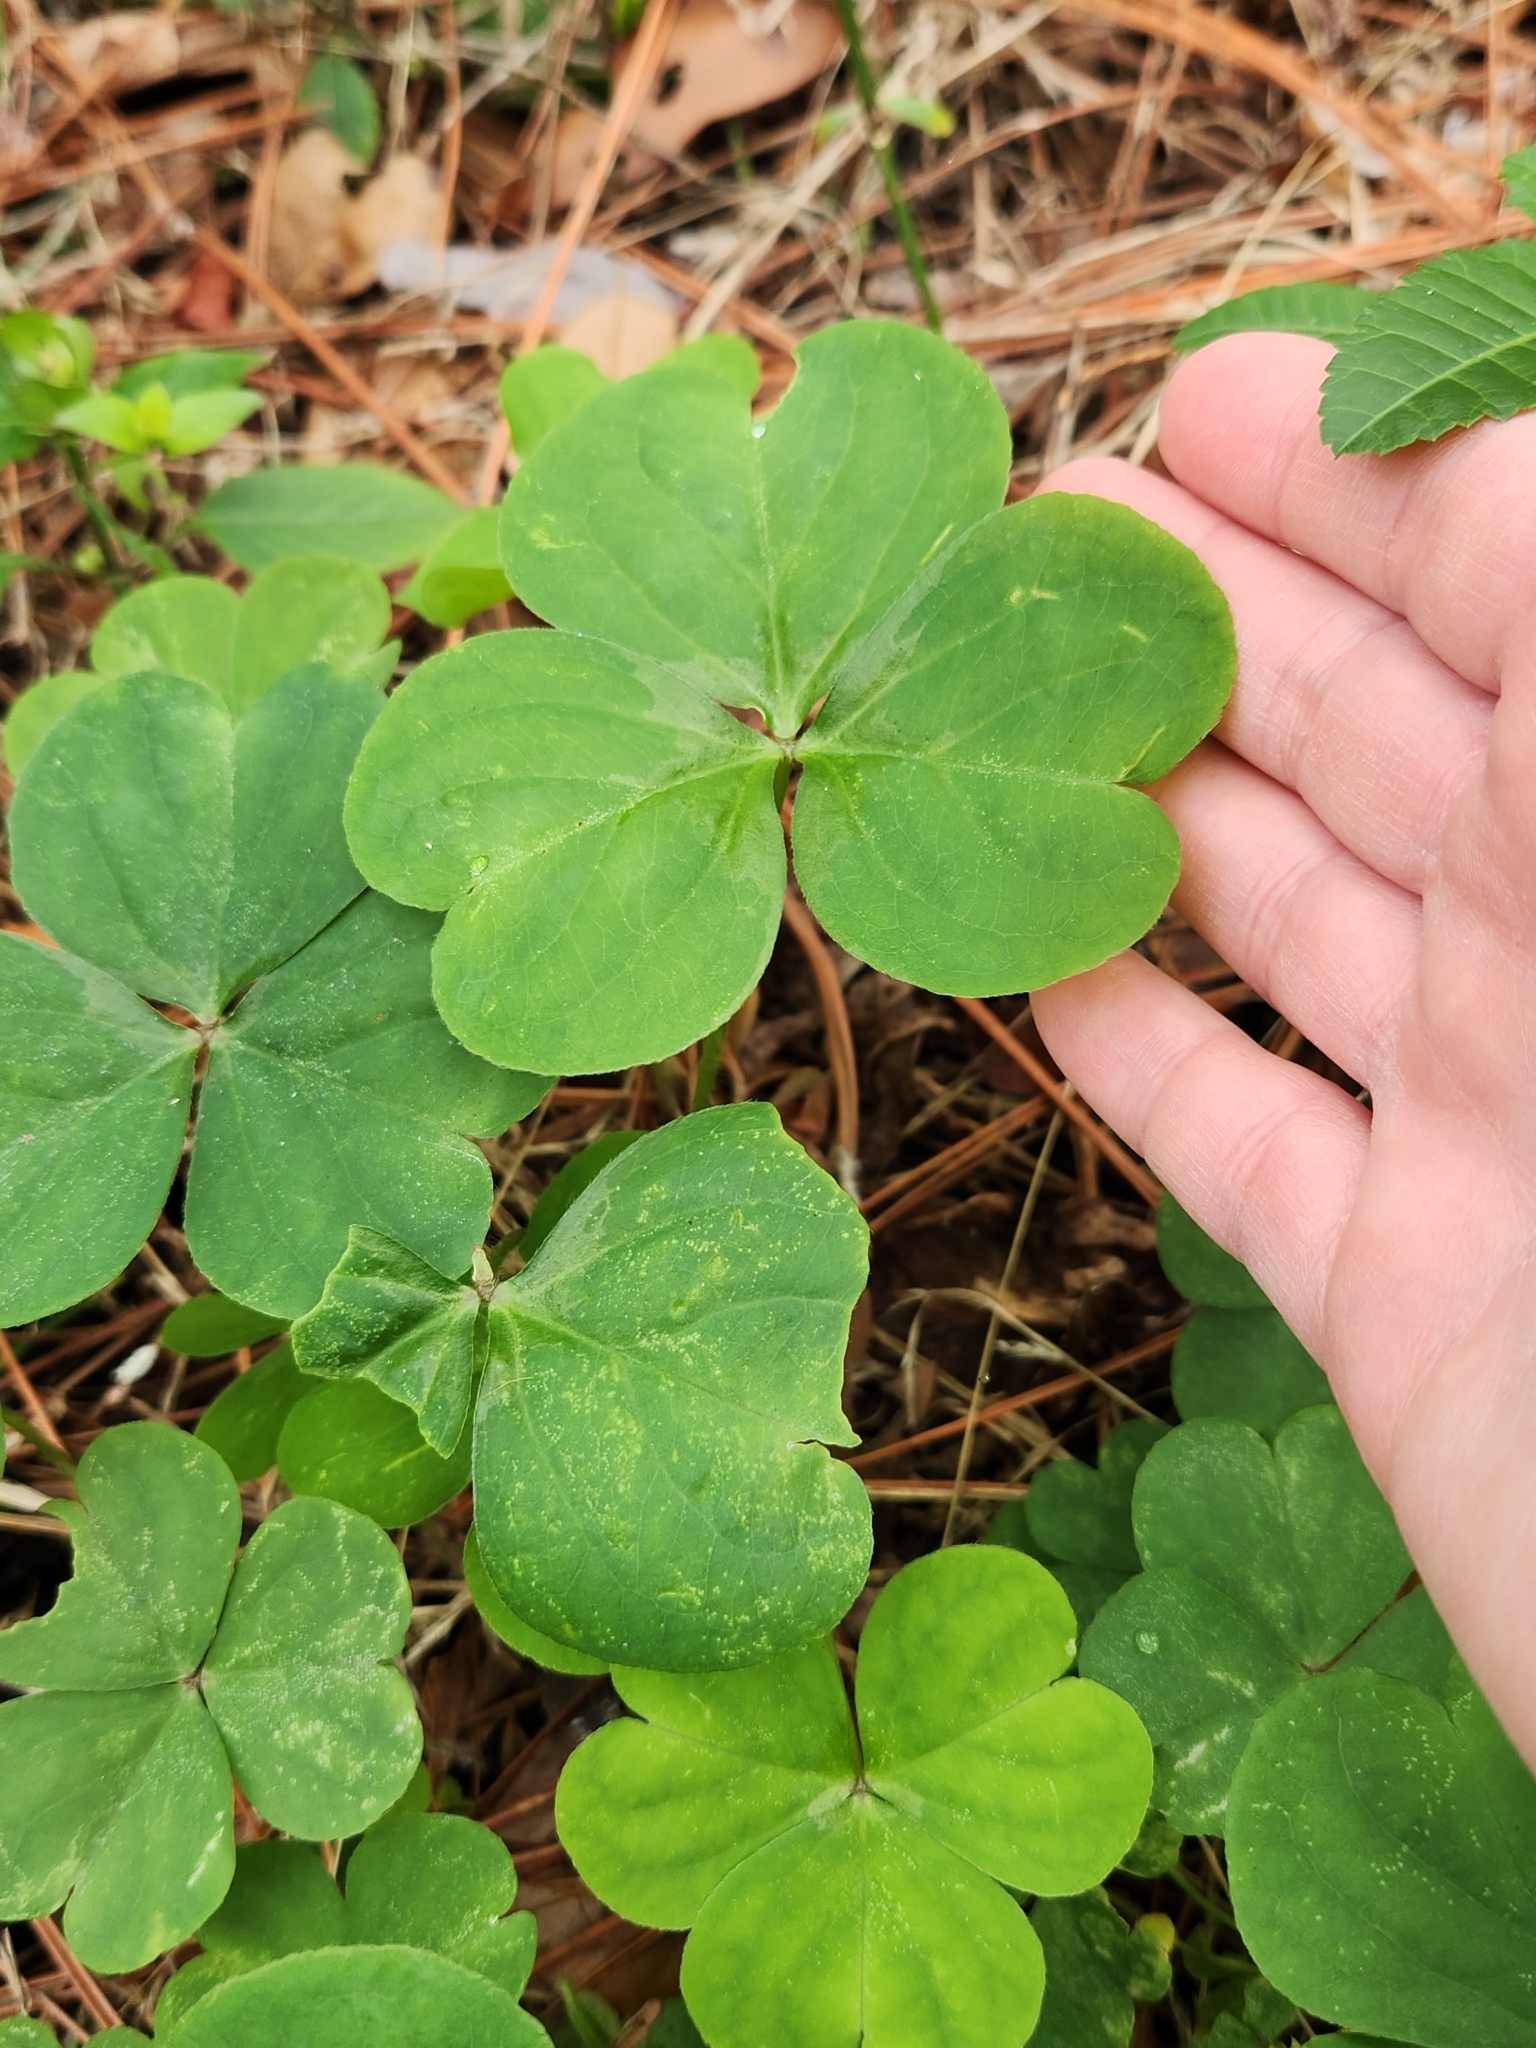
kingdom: Plantae
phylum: Tracheophyta
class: Magnoliopsida
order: Oxalidales
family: Oxalidaceae
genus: Oxalis
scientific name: Oxalis debilis
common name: Large-flowered pink-sorrel
